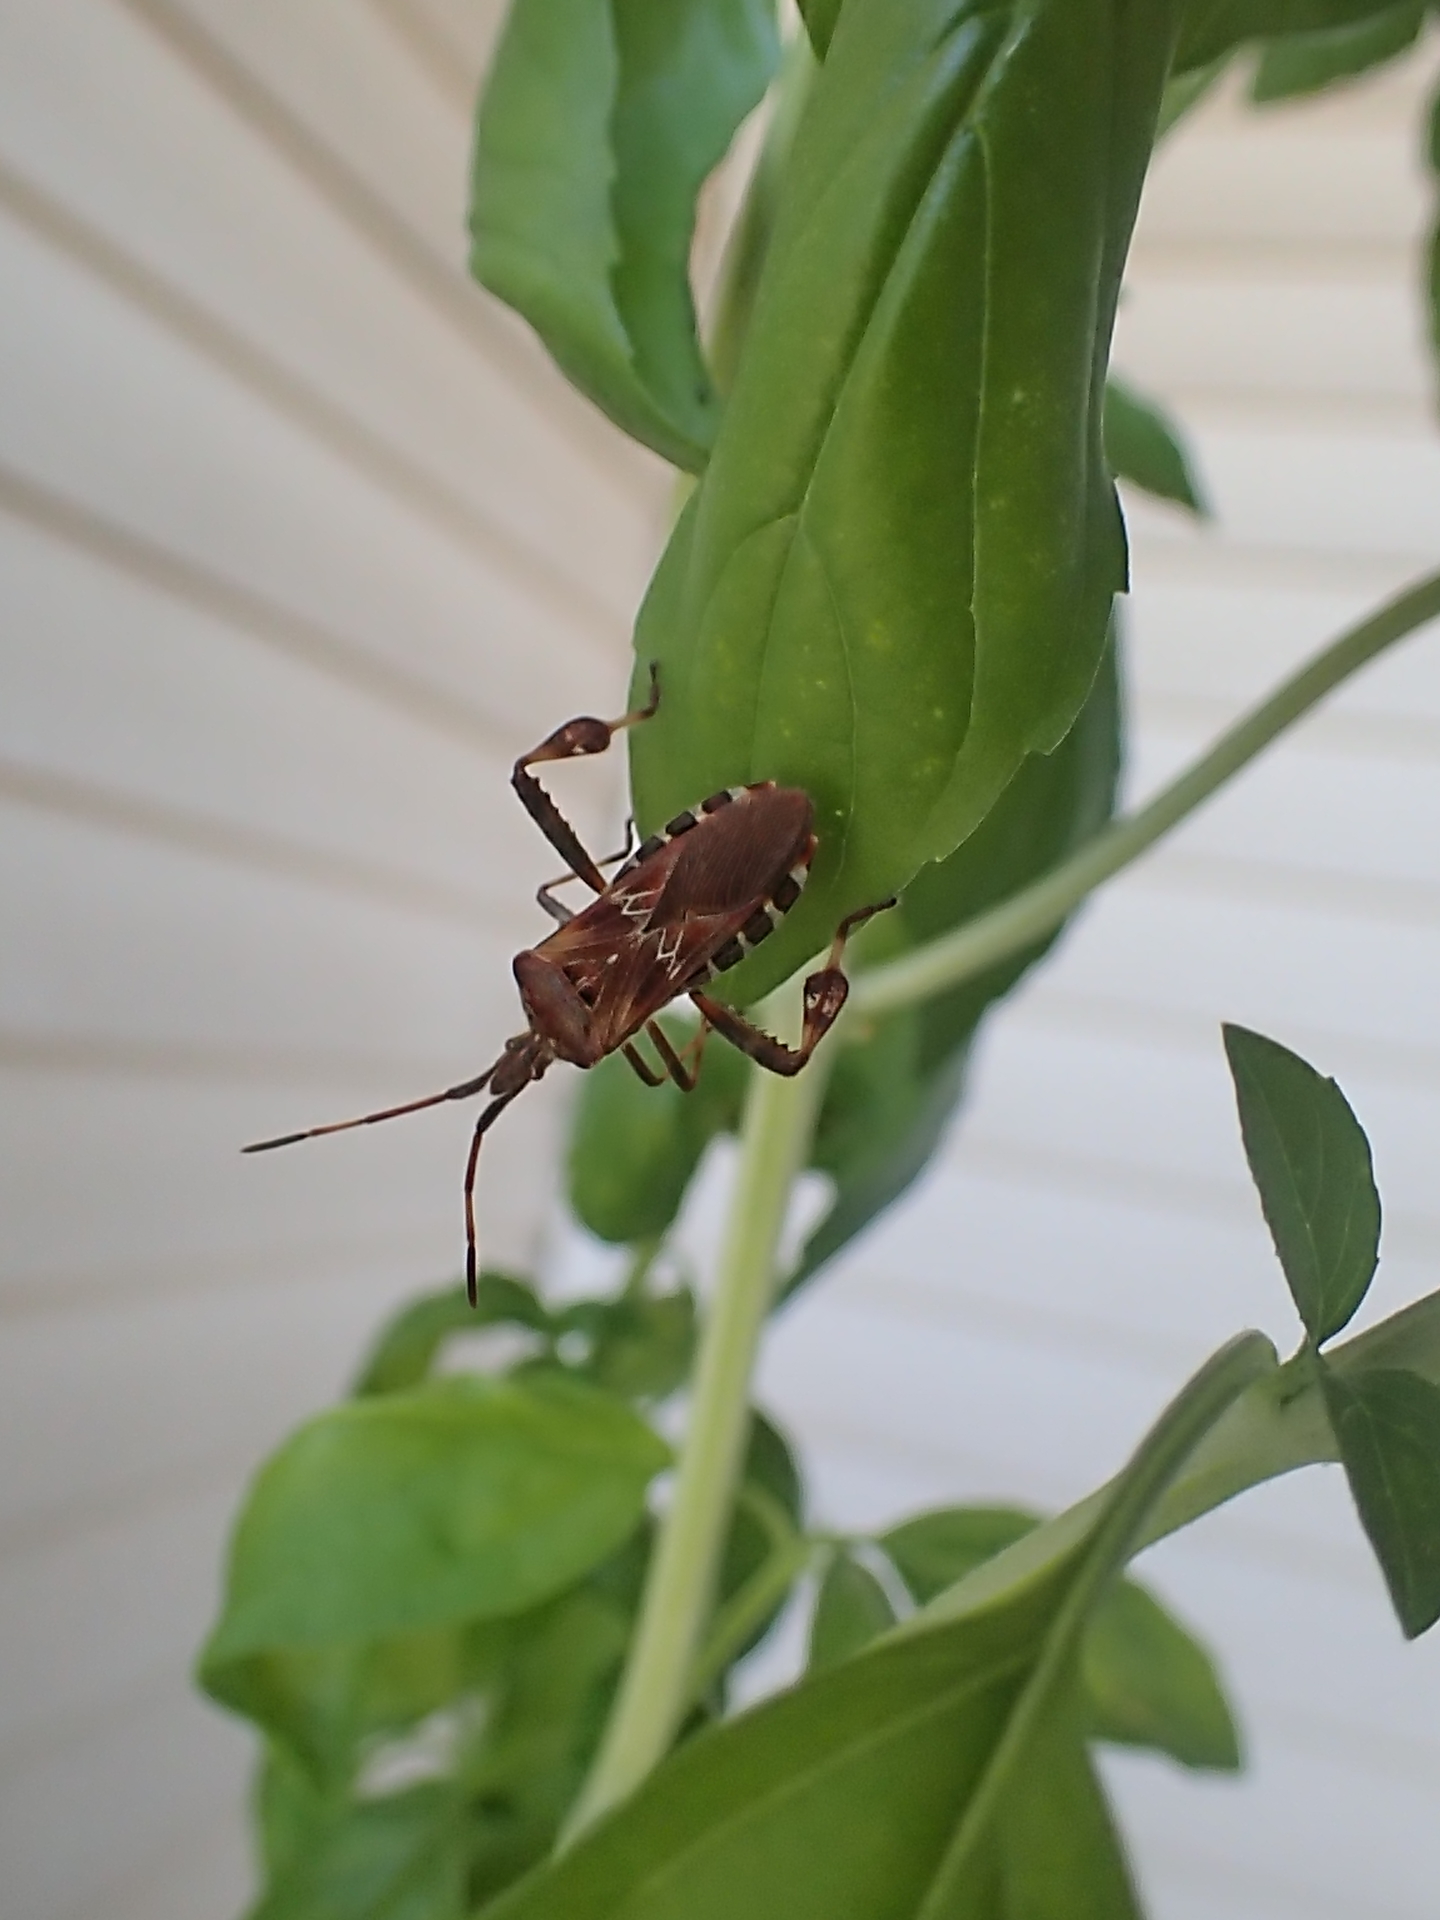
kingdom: Animalia
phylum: Arthropoda
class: Insecta
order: Hemiptera
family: Coreidae
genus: Leptoglossus
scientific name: Leptoglossus occidentalis
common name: Western conifer-seed bug
